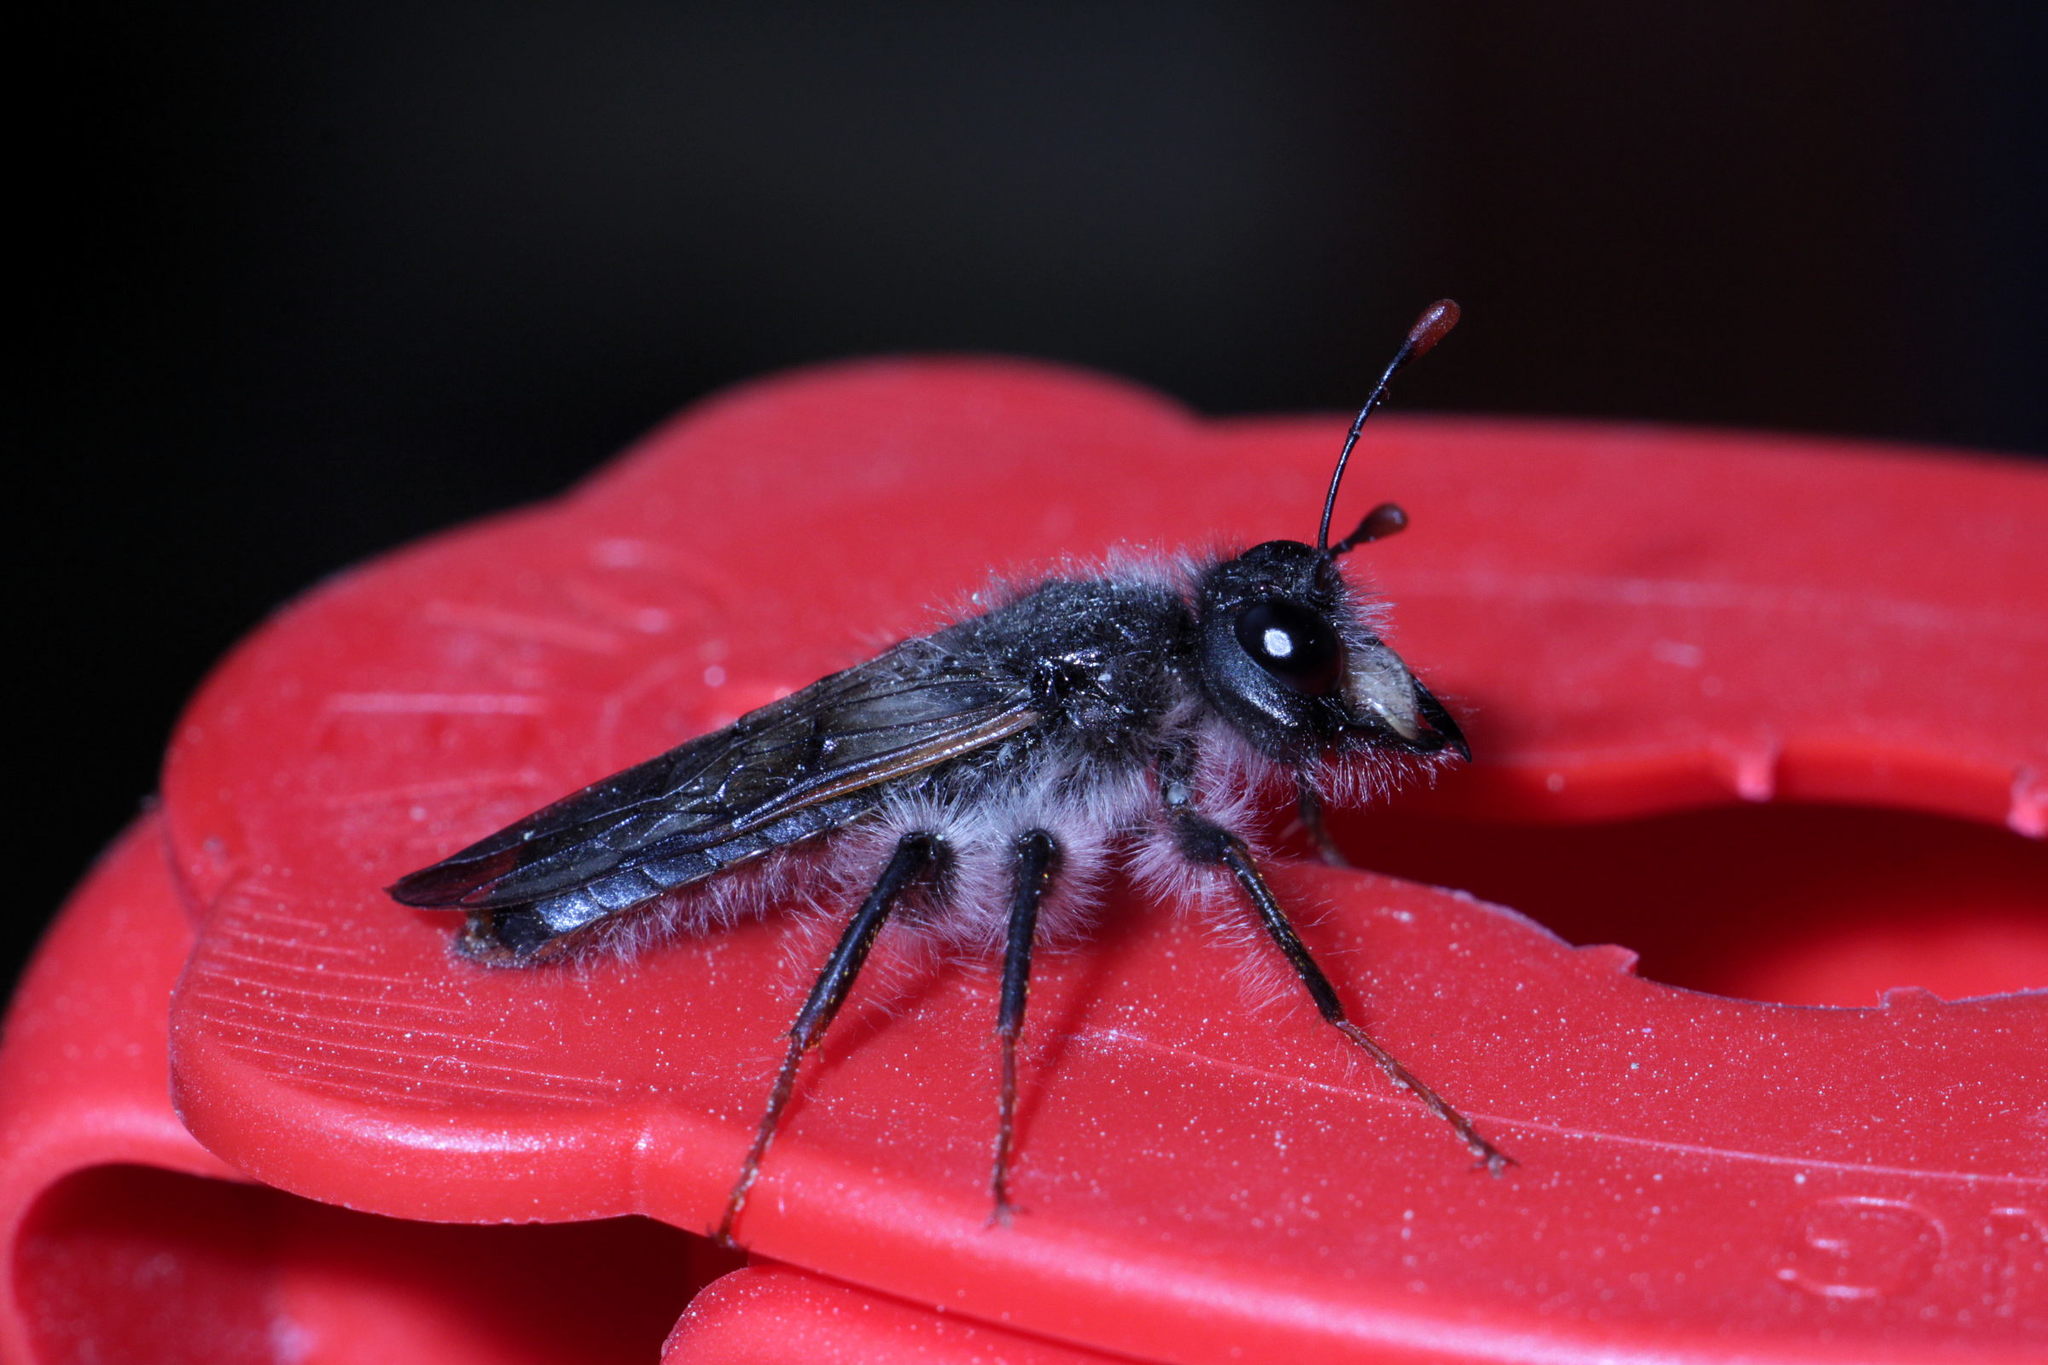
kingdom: Animalia
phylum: Arthropoda
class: Insecta
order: Hymenoptera
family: Cimbicidae
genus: Pseudoclavellaria
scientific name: Pseudoclavellaria amerinae
